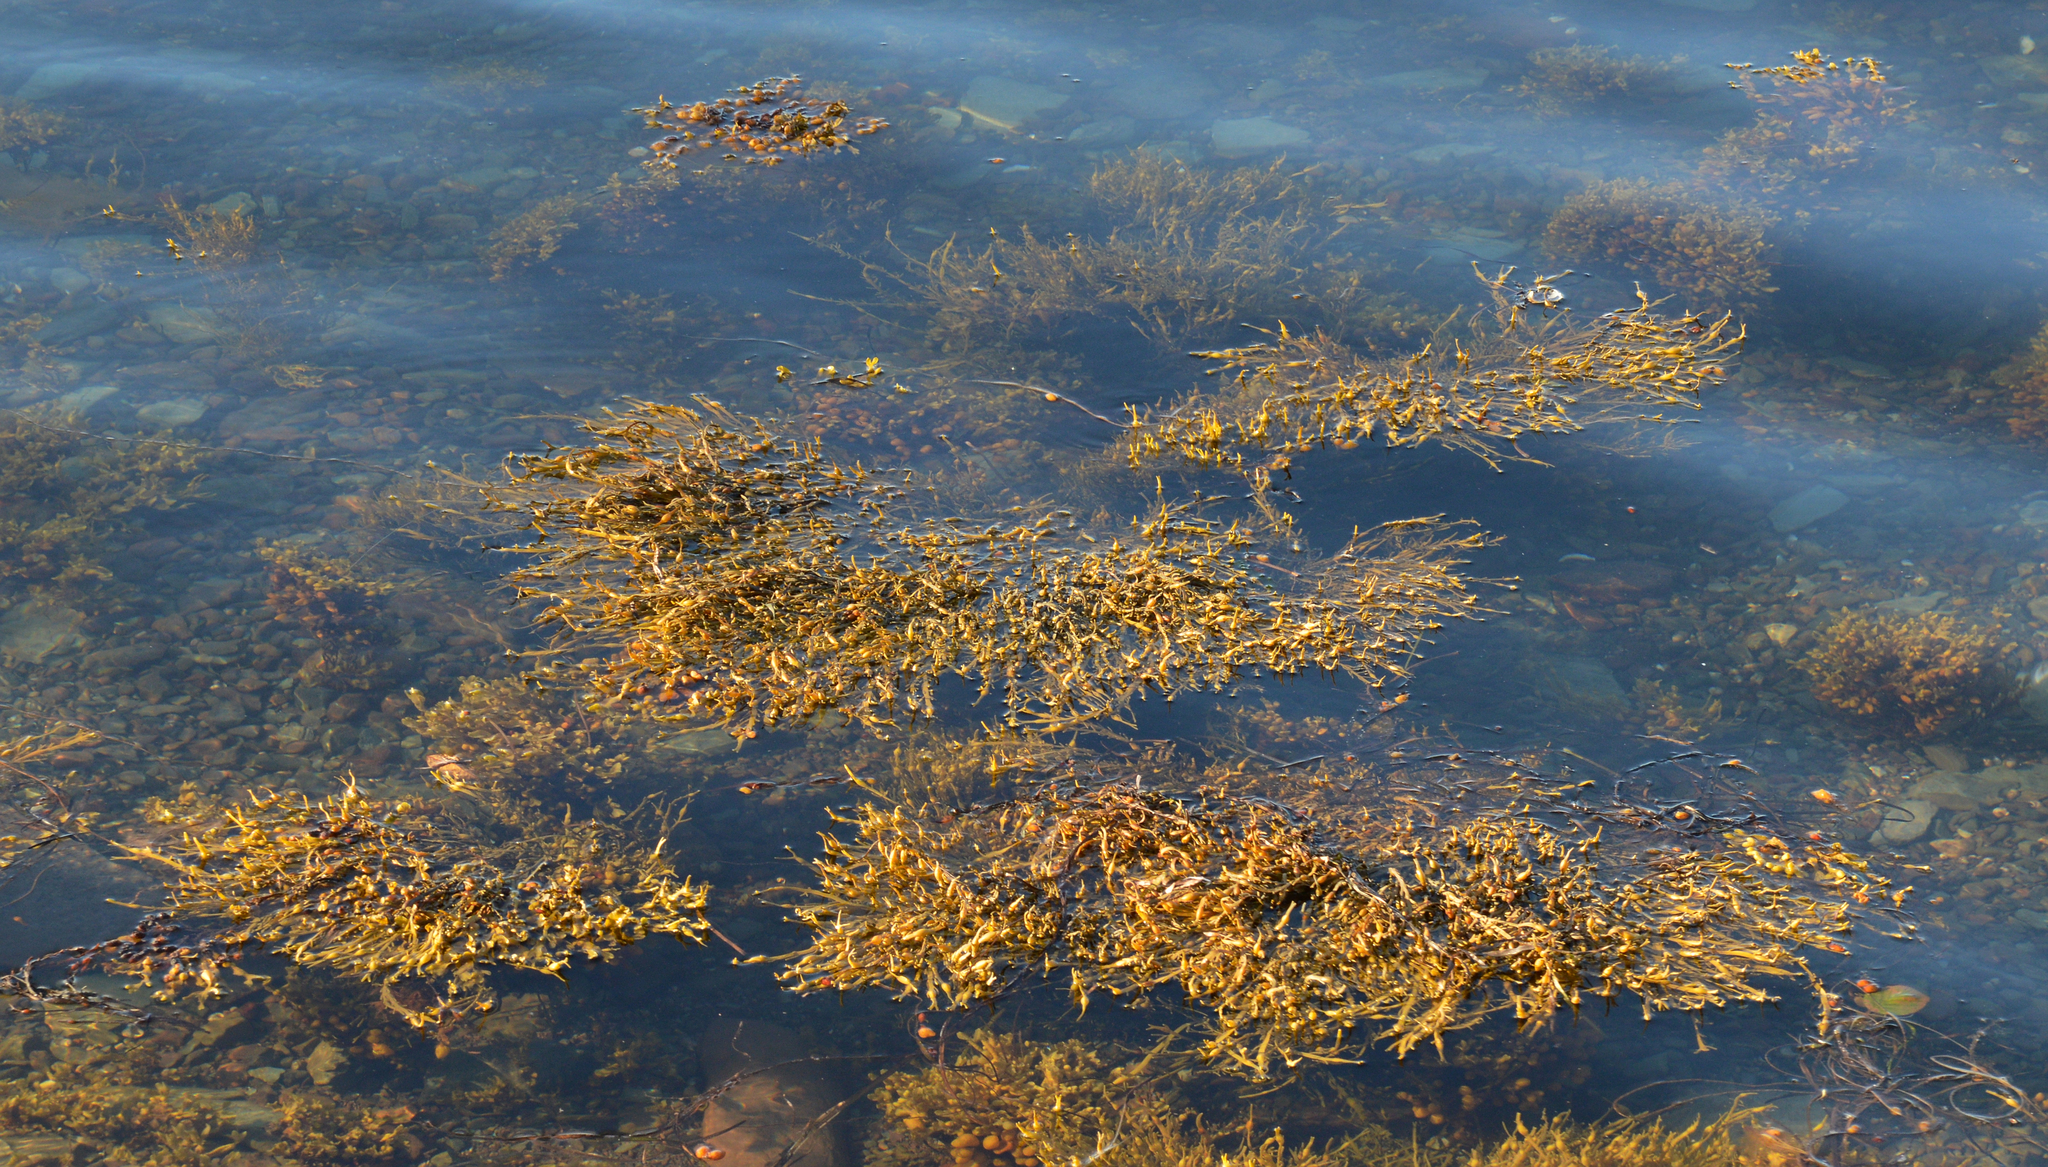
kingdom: Chromista
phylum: Ochrophyta
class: Phaeophyceae
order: Fucales
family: Fucaceae
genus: Ascophyllum
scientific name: Ascophyllum nodosum
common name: Knotted wrack
